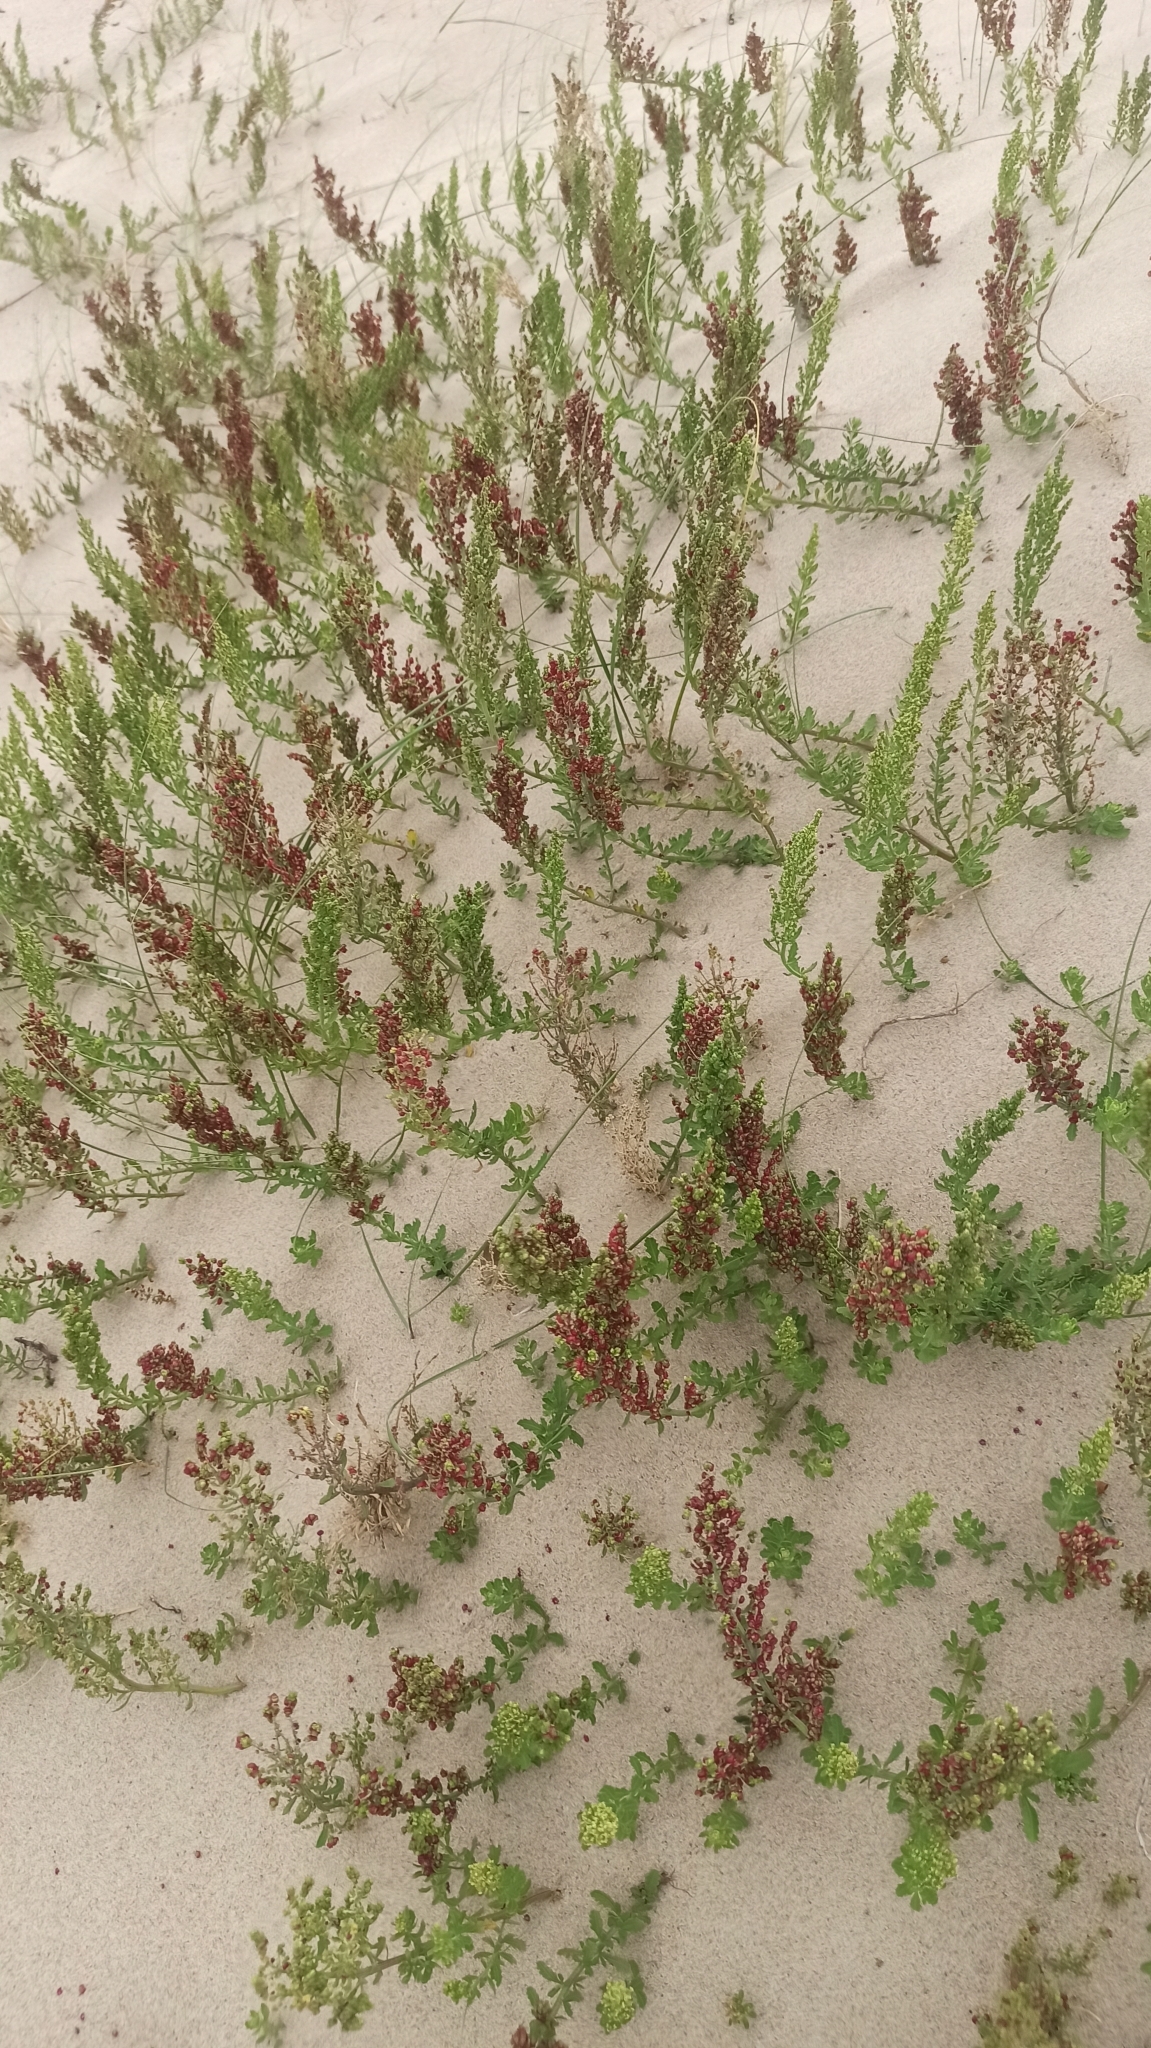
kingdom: Plantae
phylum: Tracheophyta
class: Magnoliopsida
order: Caryophyllales
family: Amaranthaceae
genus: Dysphania
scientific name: Dysphania retusa
